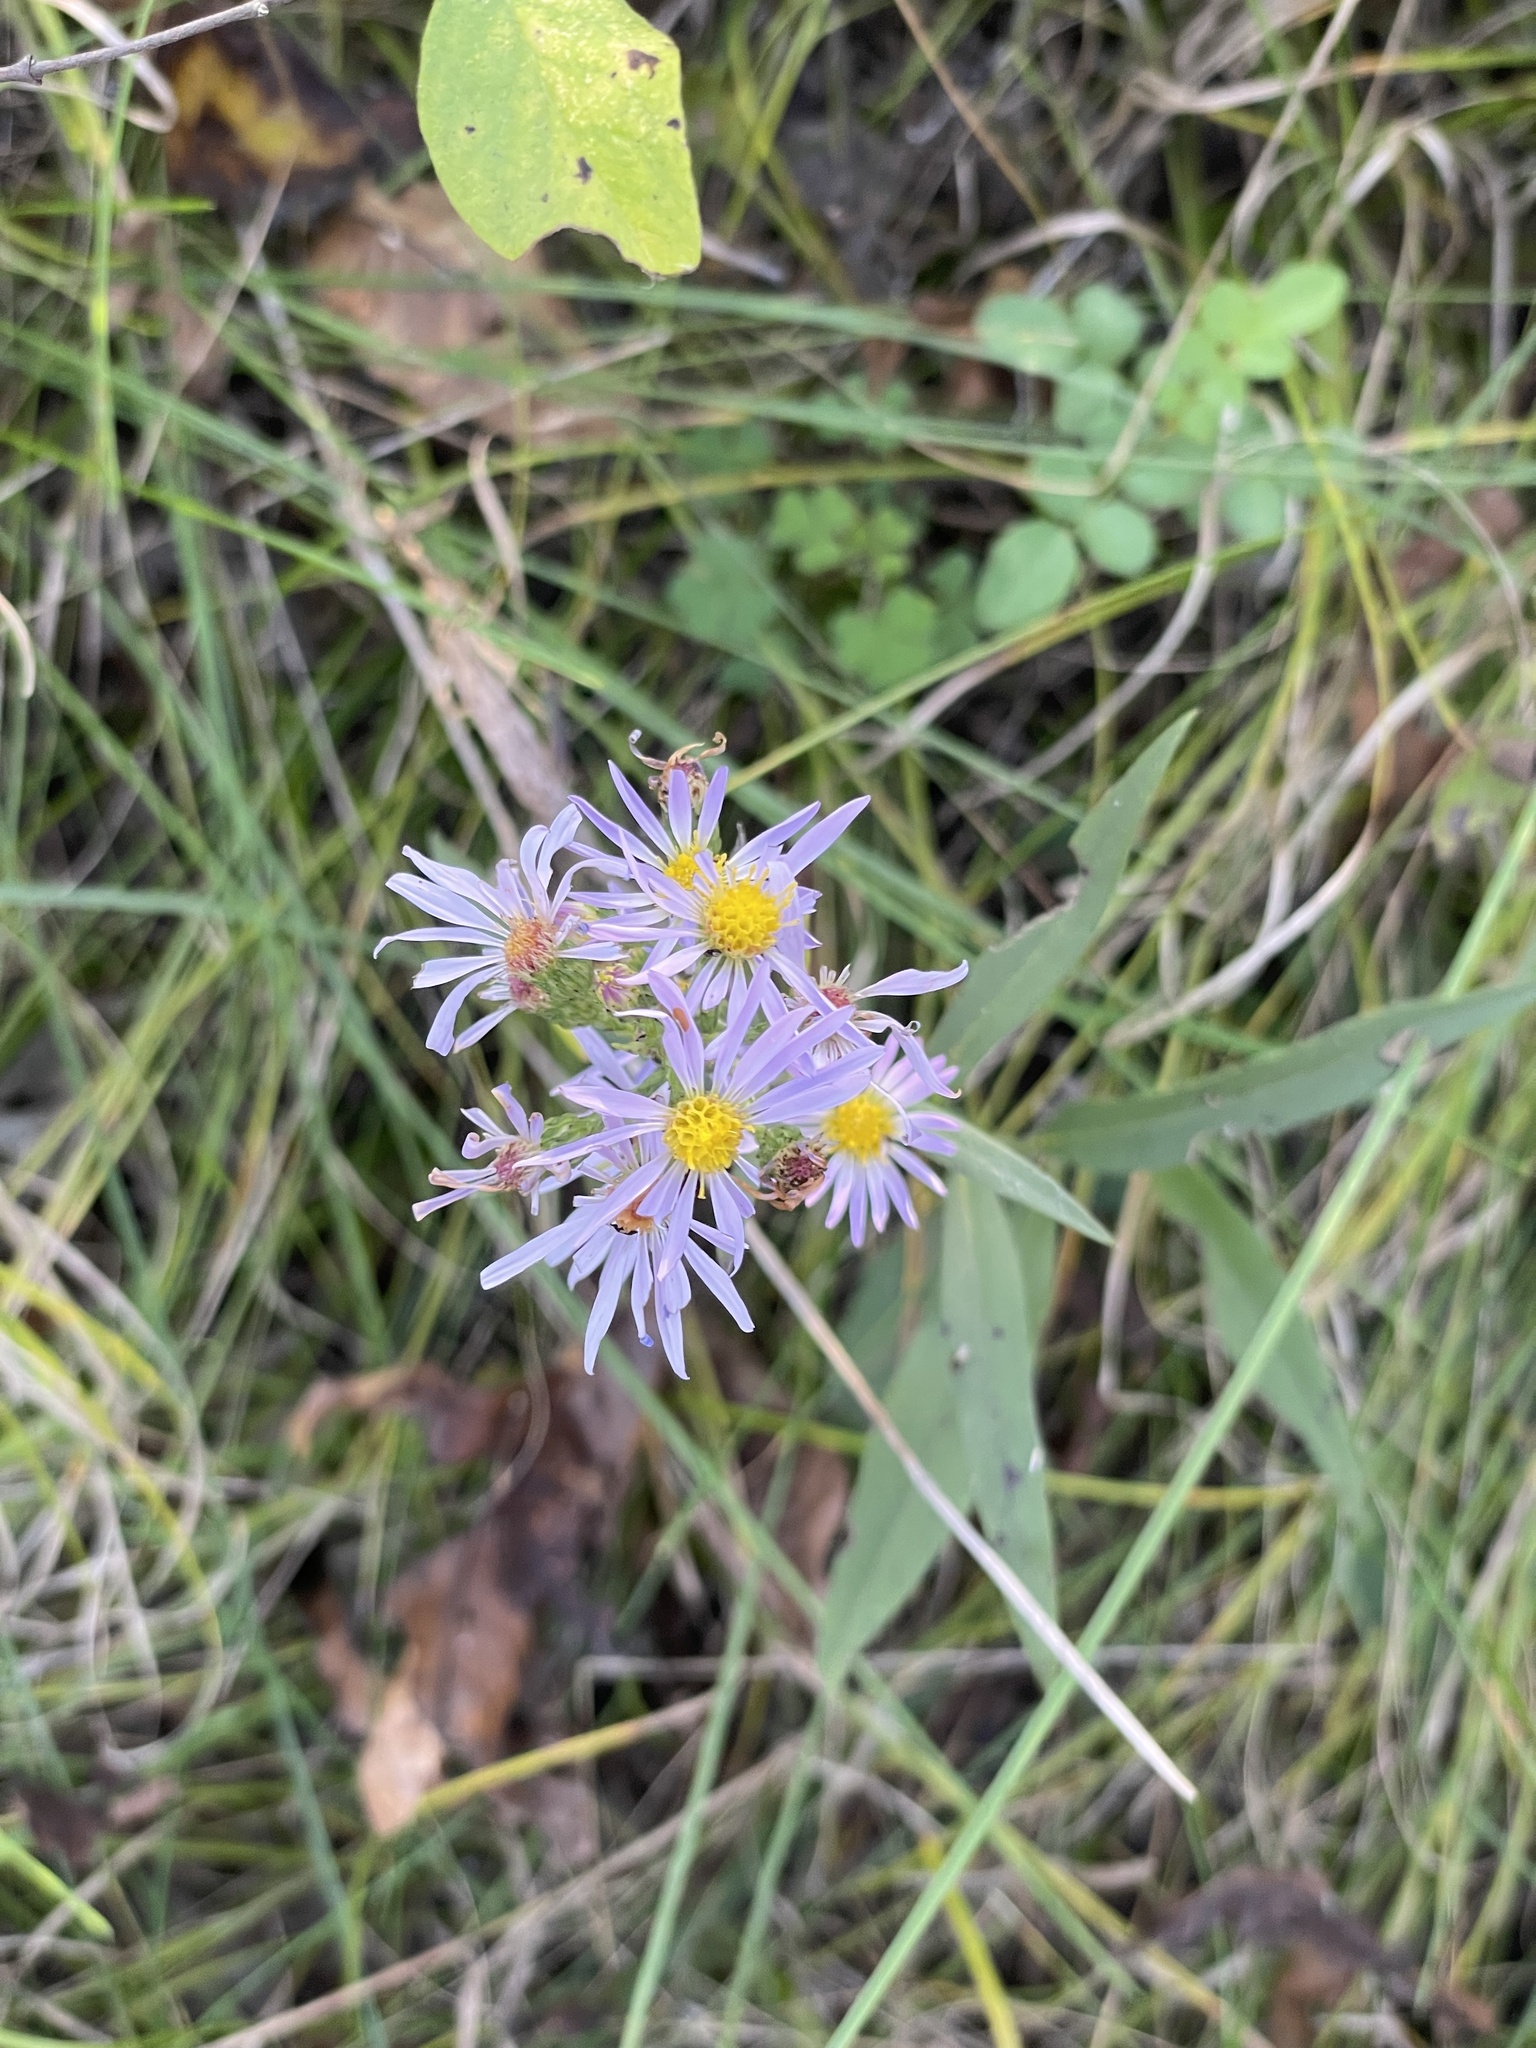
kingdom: Plantae
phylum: Tracheophyta
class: Magnoliopsida
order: Asterales
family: Asteraceae
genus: Symphyotrichum
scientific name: Symphyotrichum laeve
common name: Glaucous aster
